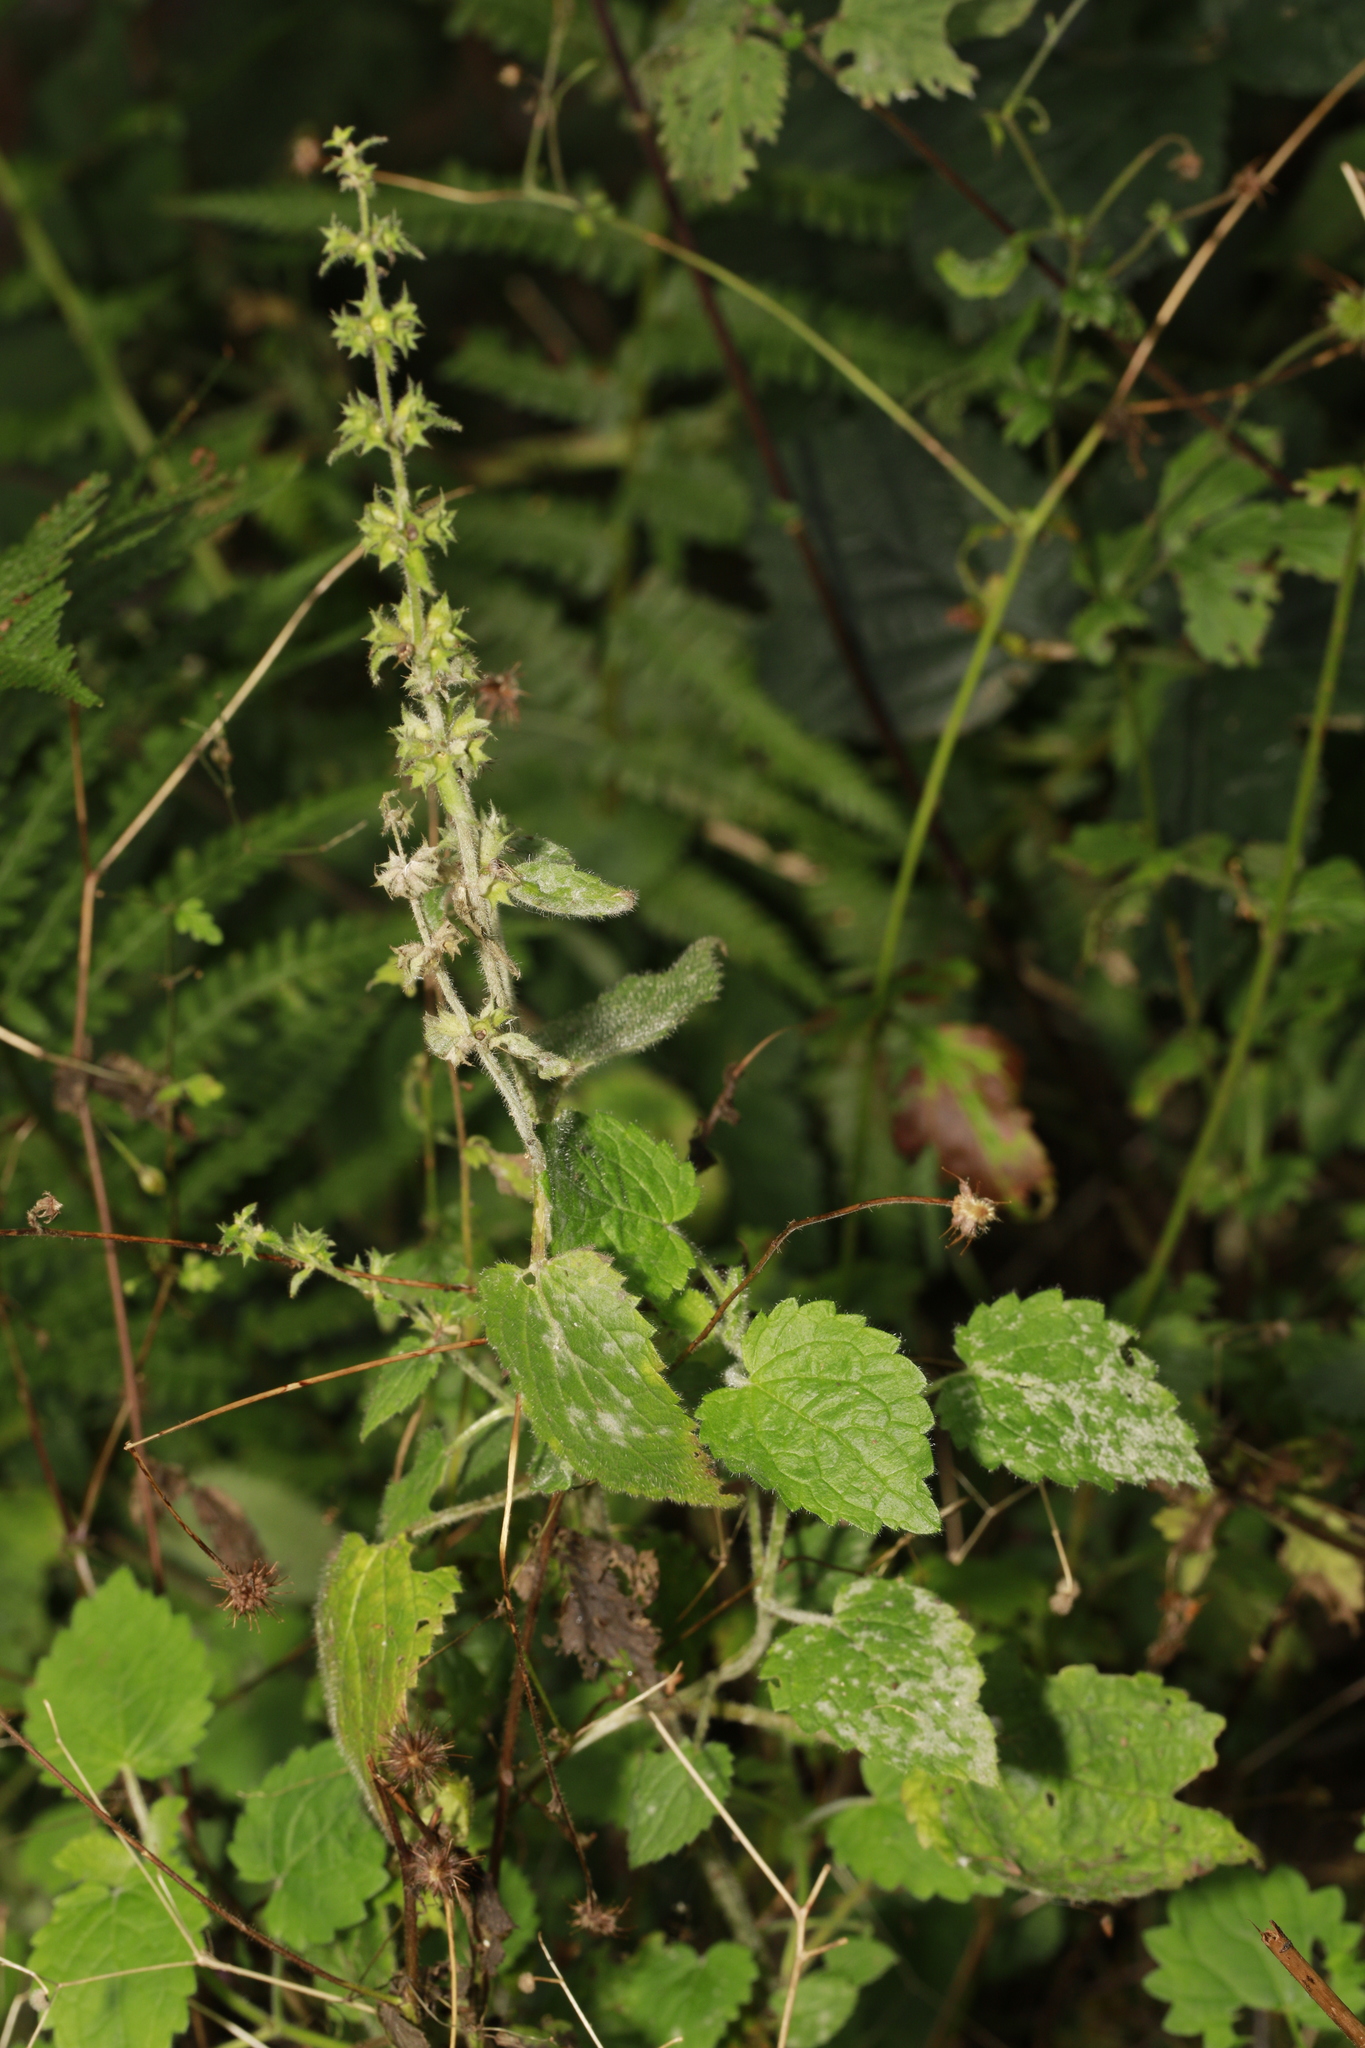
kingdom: Plantae
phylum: Tracheophyta
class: Magnoliopsida
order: Lamiales
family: Lamiaceae
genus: Stachys
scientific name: Stachys sylvatica
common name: Hedge woundwort
